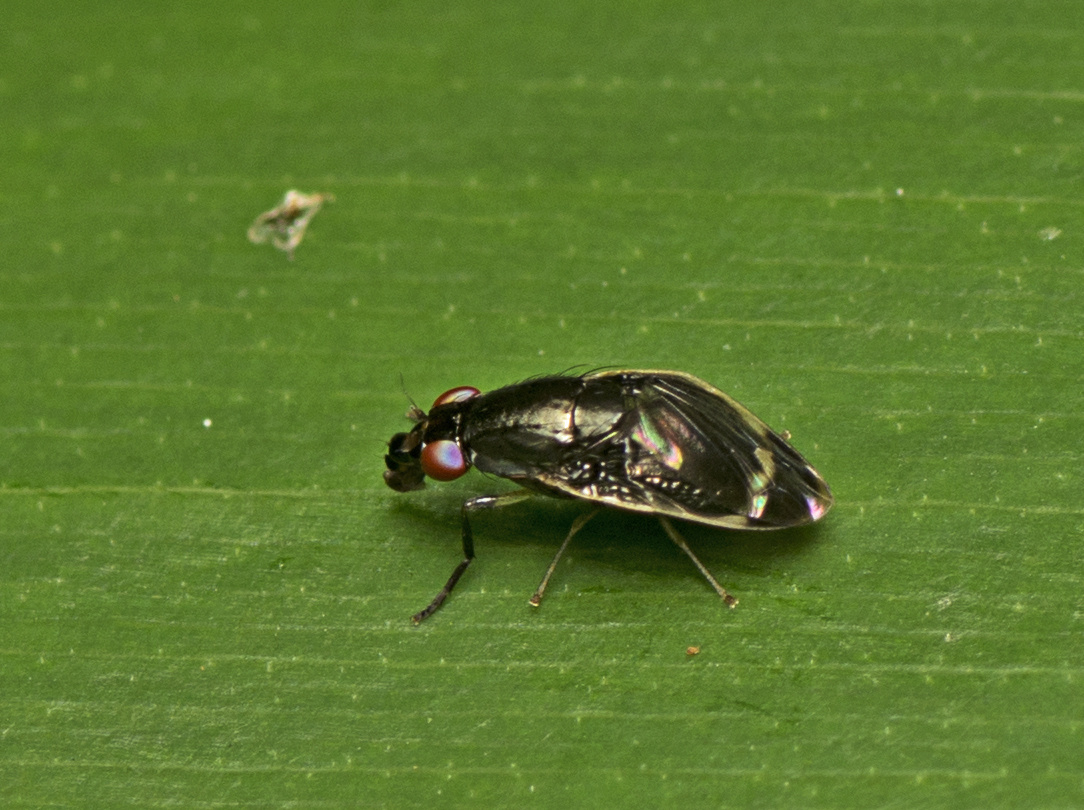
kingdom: Animalia
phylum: Arthropoda
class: Insecta
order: Diptera
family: Lauxaniidae
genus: Depressa
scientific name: Depressa albicosta
